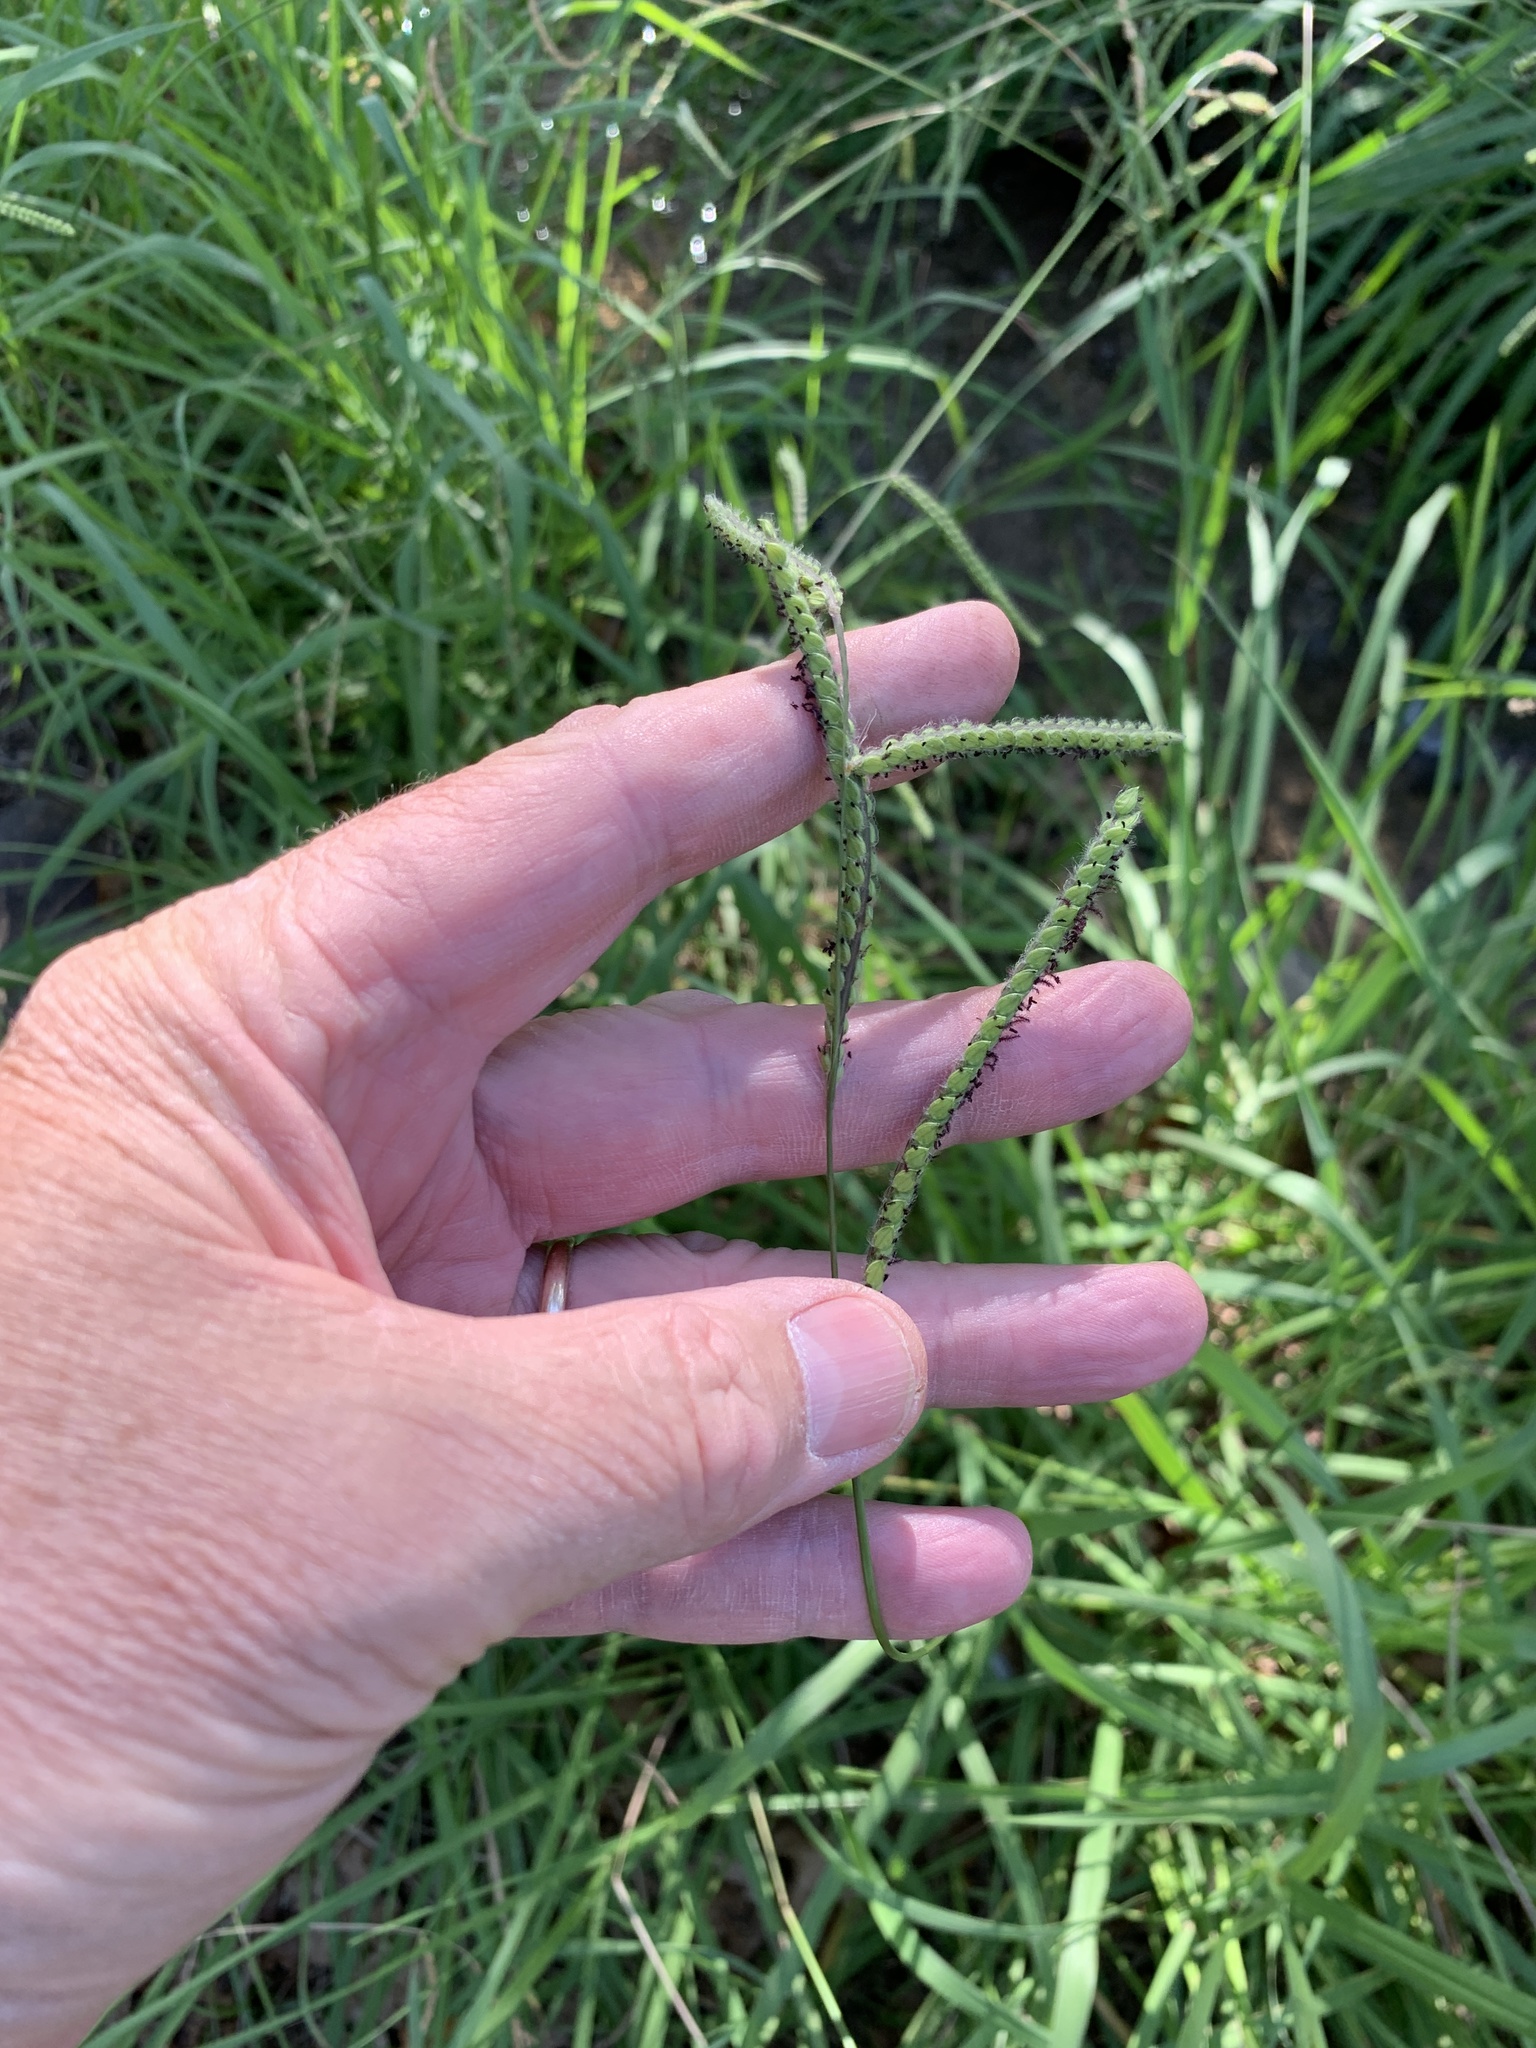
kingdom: Plantae
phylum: Tracheophyta
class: Liliopsida
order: Poales
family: Poaceae
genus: Paspalum
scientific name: Paspalum urvillei
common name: Vasey's grass
